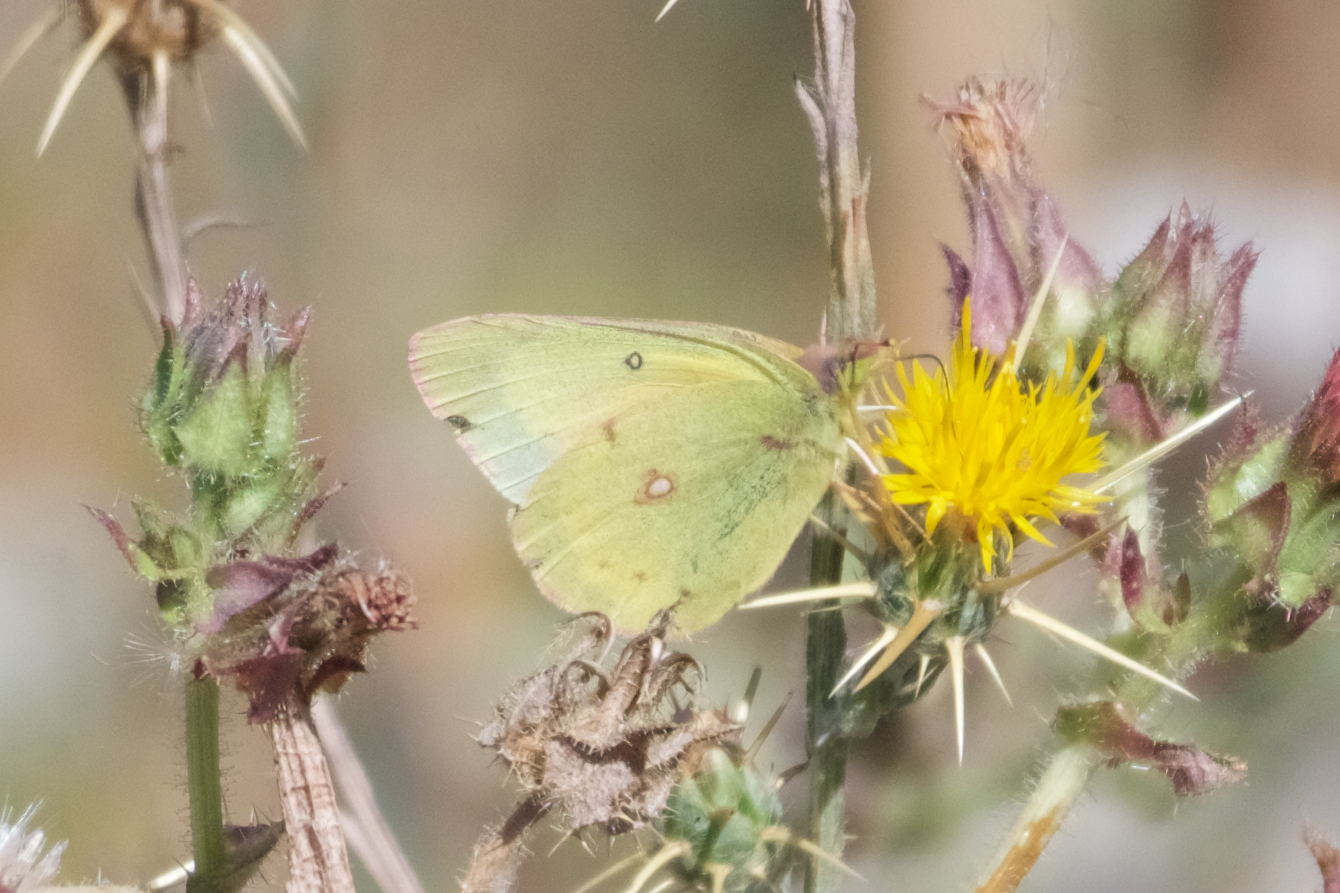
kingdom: Animalia
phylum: Arthropoda
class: Insecta
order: Lepidoptera
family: Pieridae
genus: Colias
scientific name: Colias eurytheme
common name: Alfalfa butterfly
